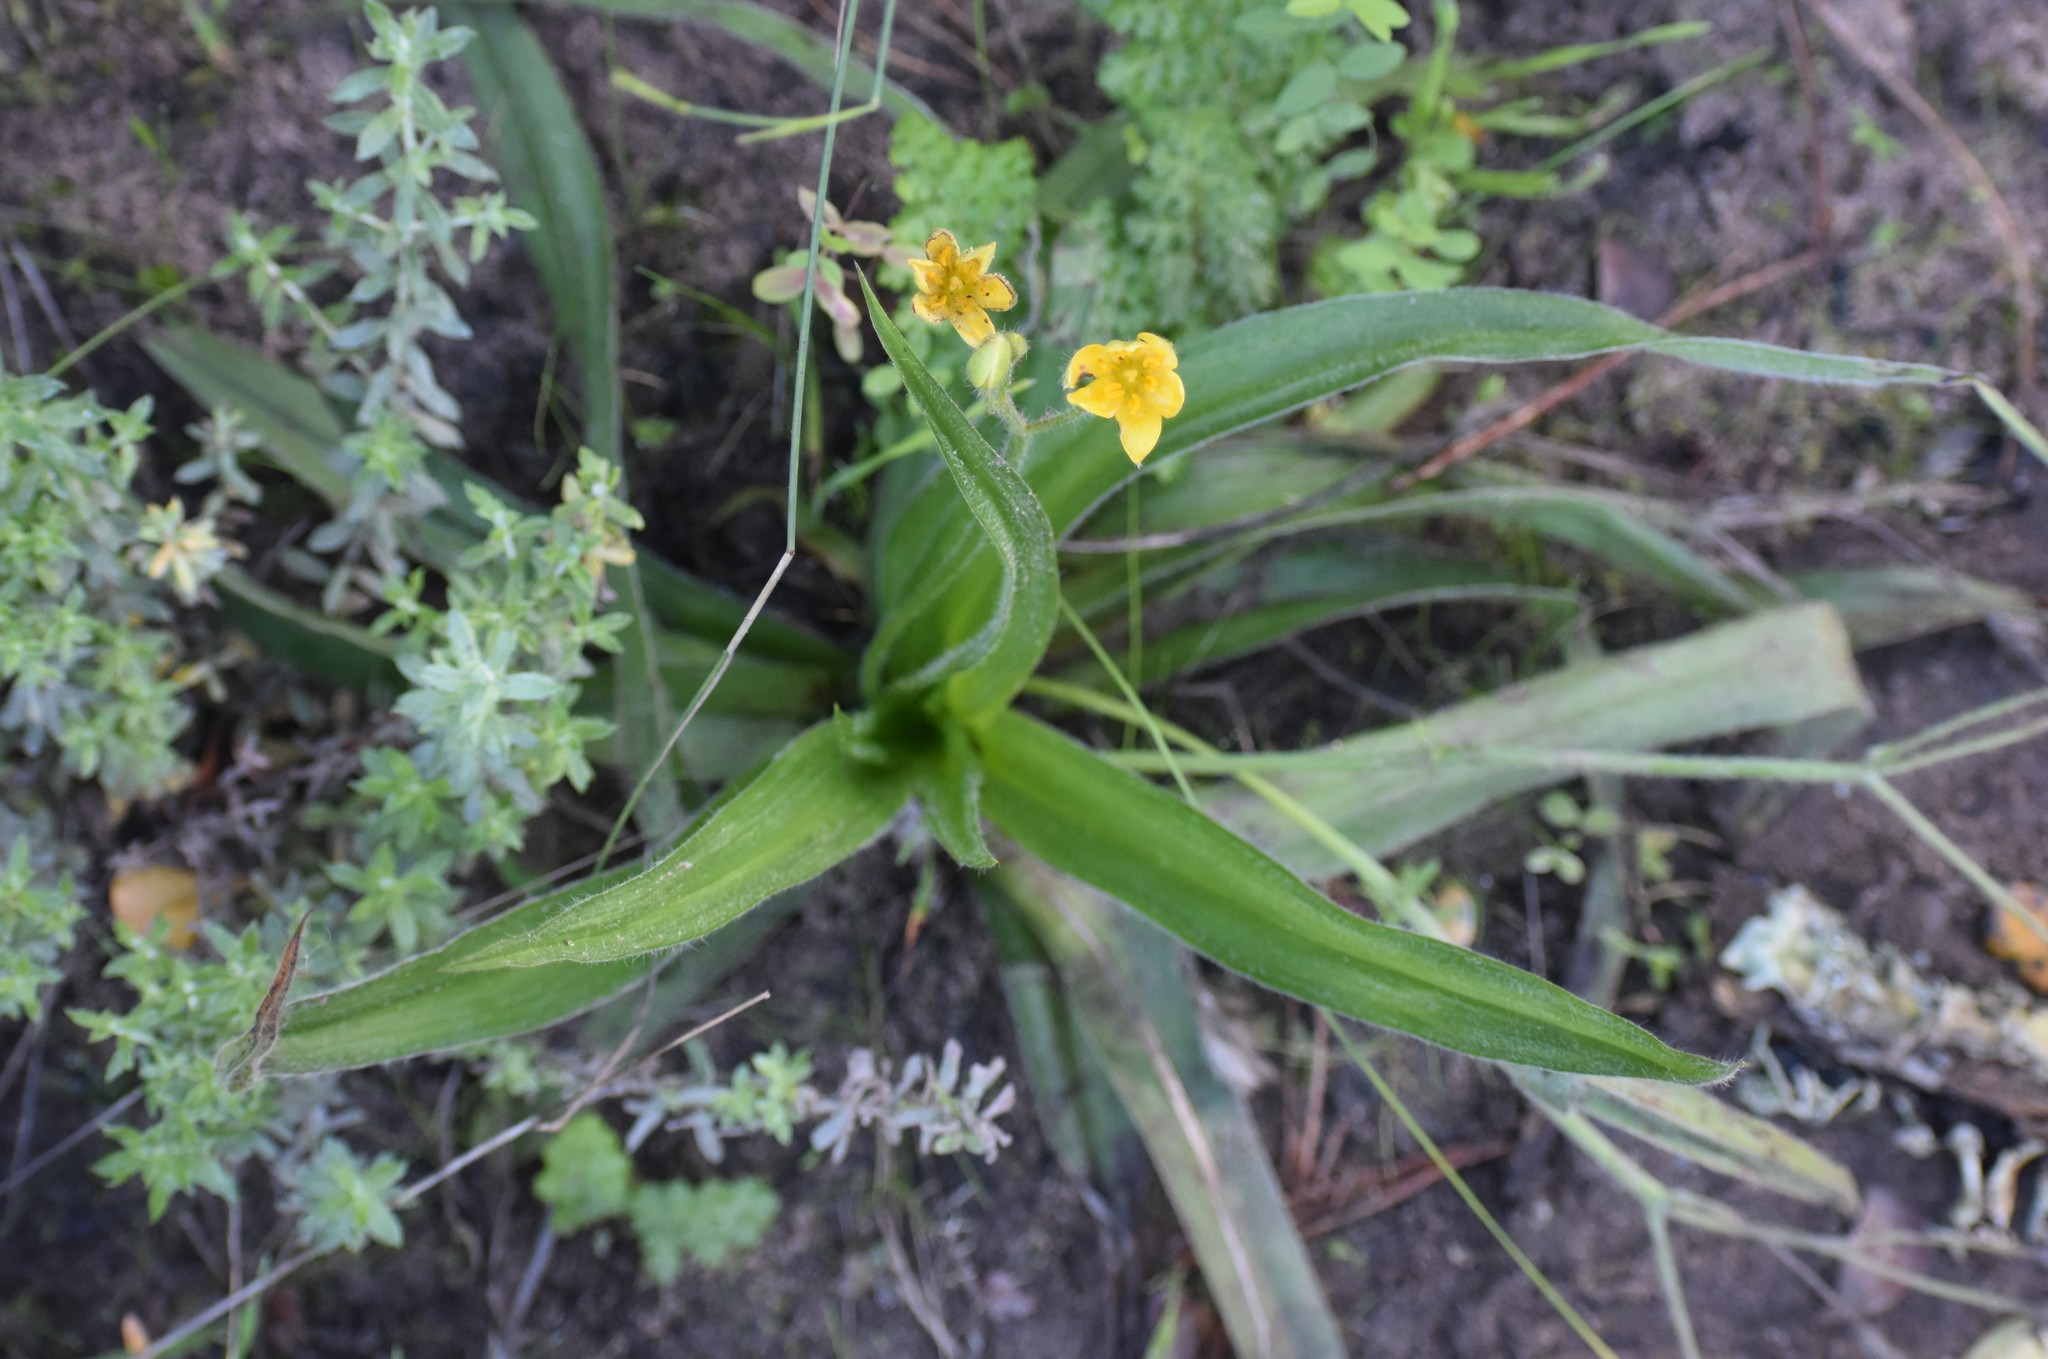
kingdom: Plantae
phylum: Tracheophyta
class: Liliopsida
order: Asparagales
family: Hypoxidaceae
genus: Hypoxis
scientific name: Hypoxis hemerocallidea
